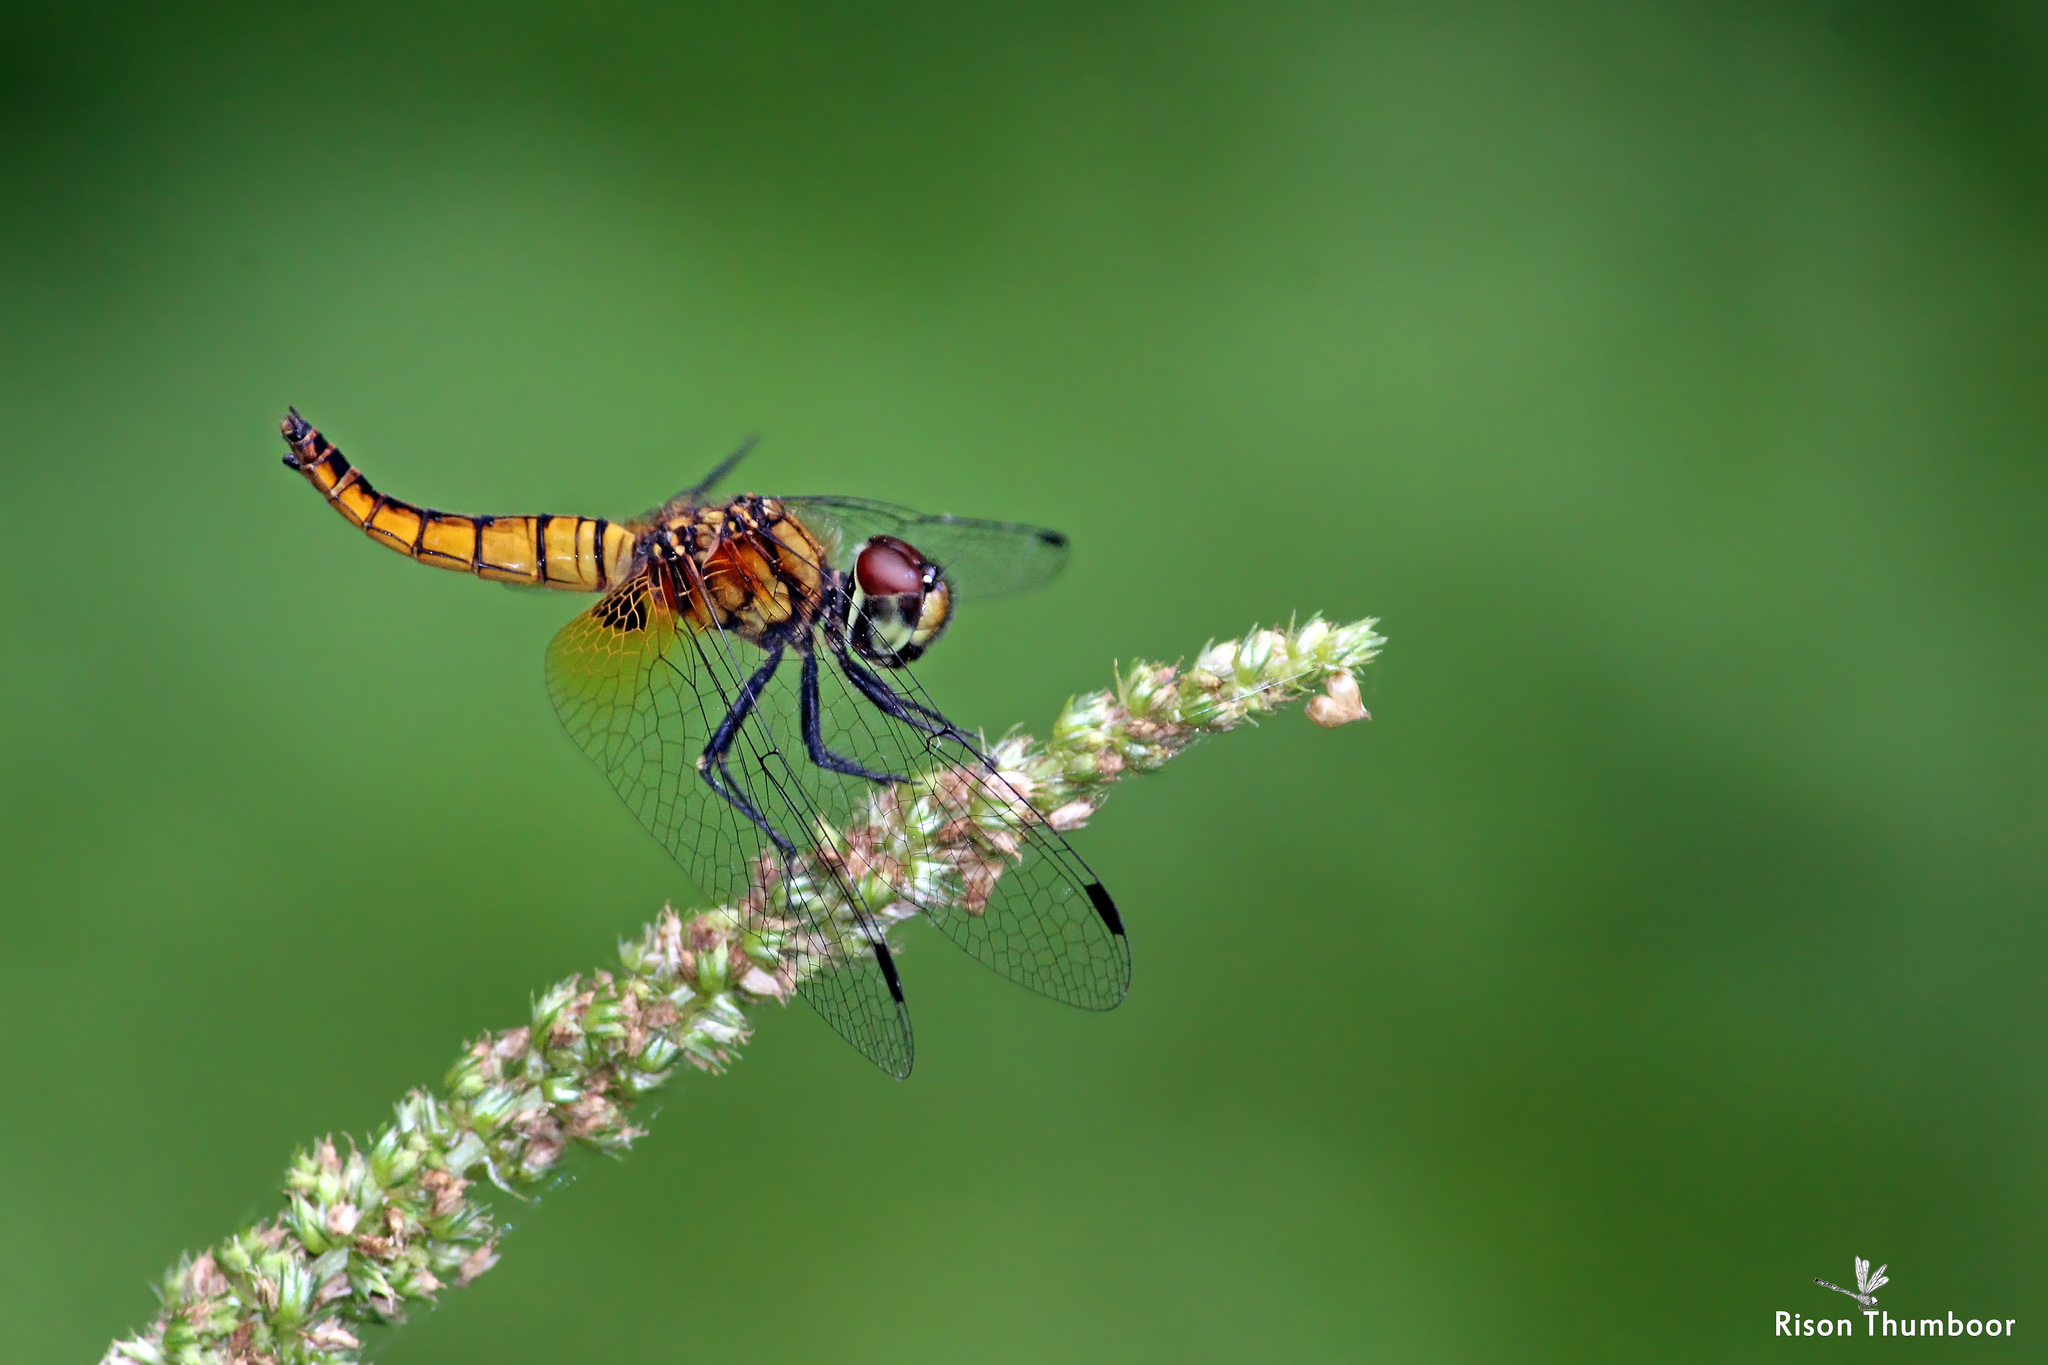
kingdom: Animalia
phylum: Arthropoda
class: Insecta
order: Odonata
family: Libellulidae
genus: Aethriamanta
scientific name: Aethriamanta brevipennis
